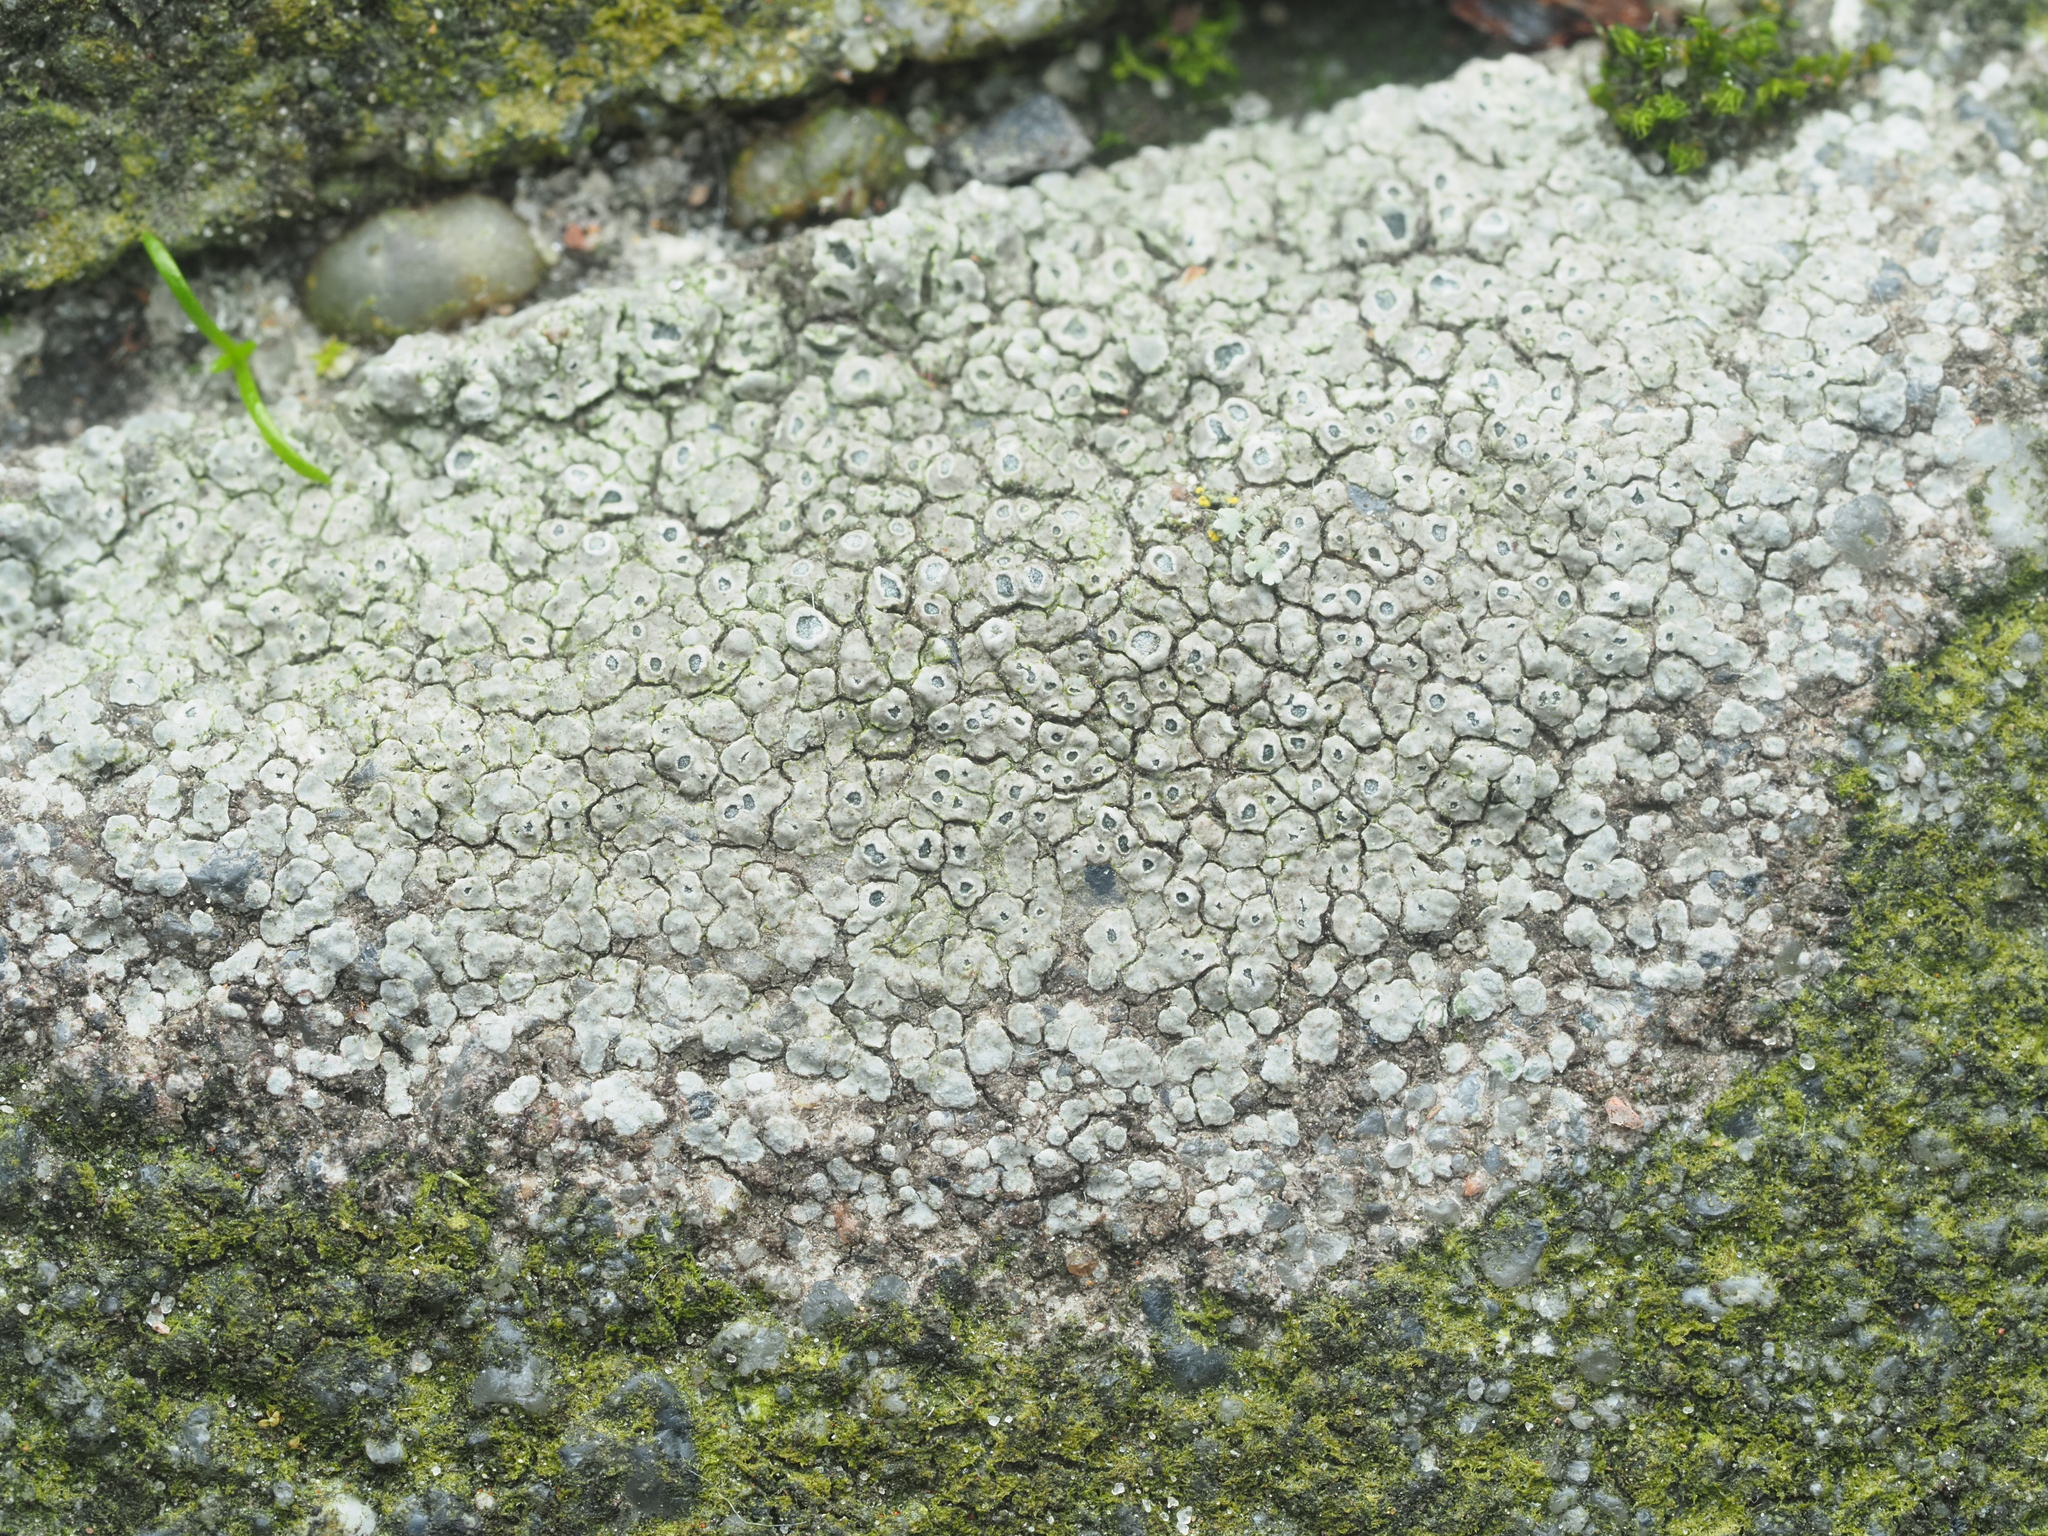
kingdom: Fungi
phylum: Ascomycota
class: Lecanoromycetes
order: Pertusariales
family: Megasporaceae
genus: Circinaria
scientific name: Circinaria contorta
